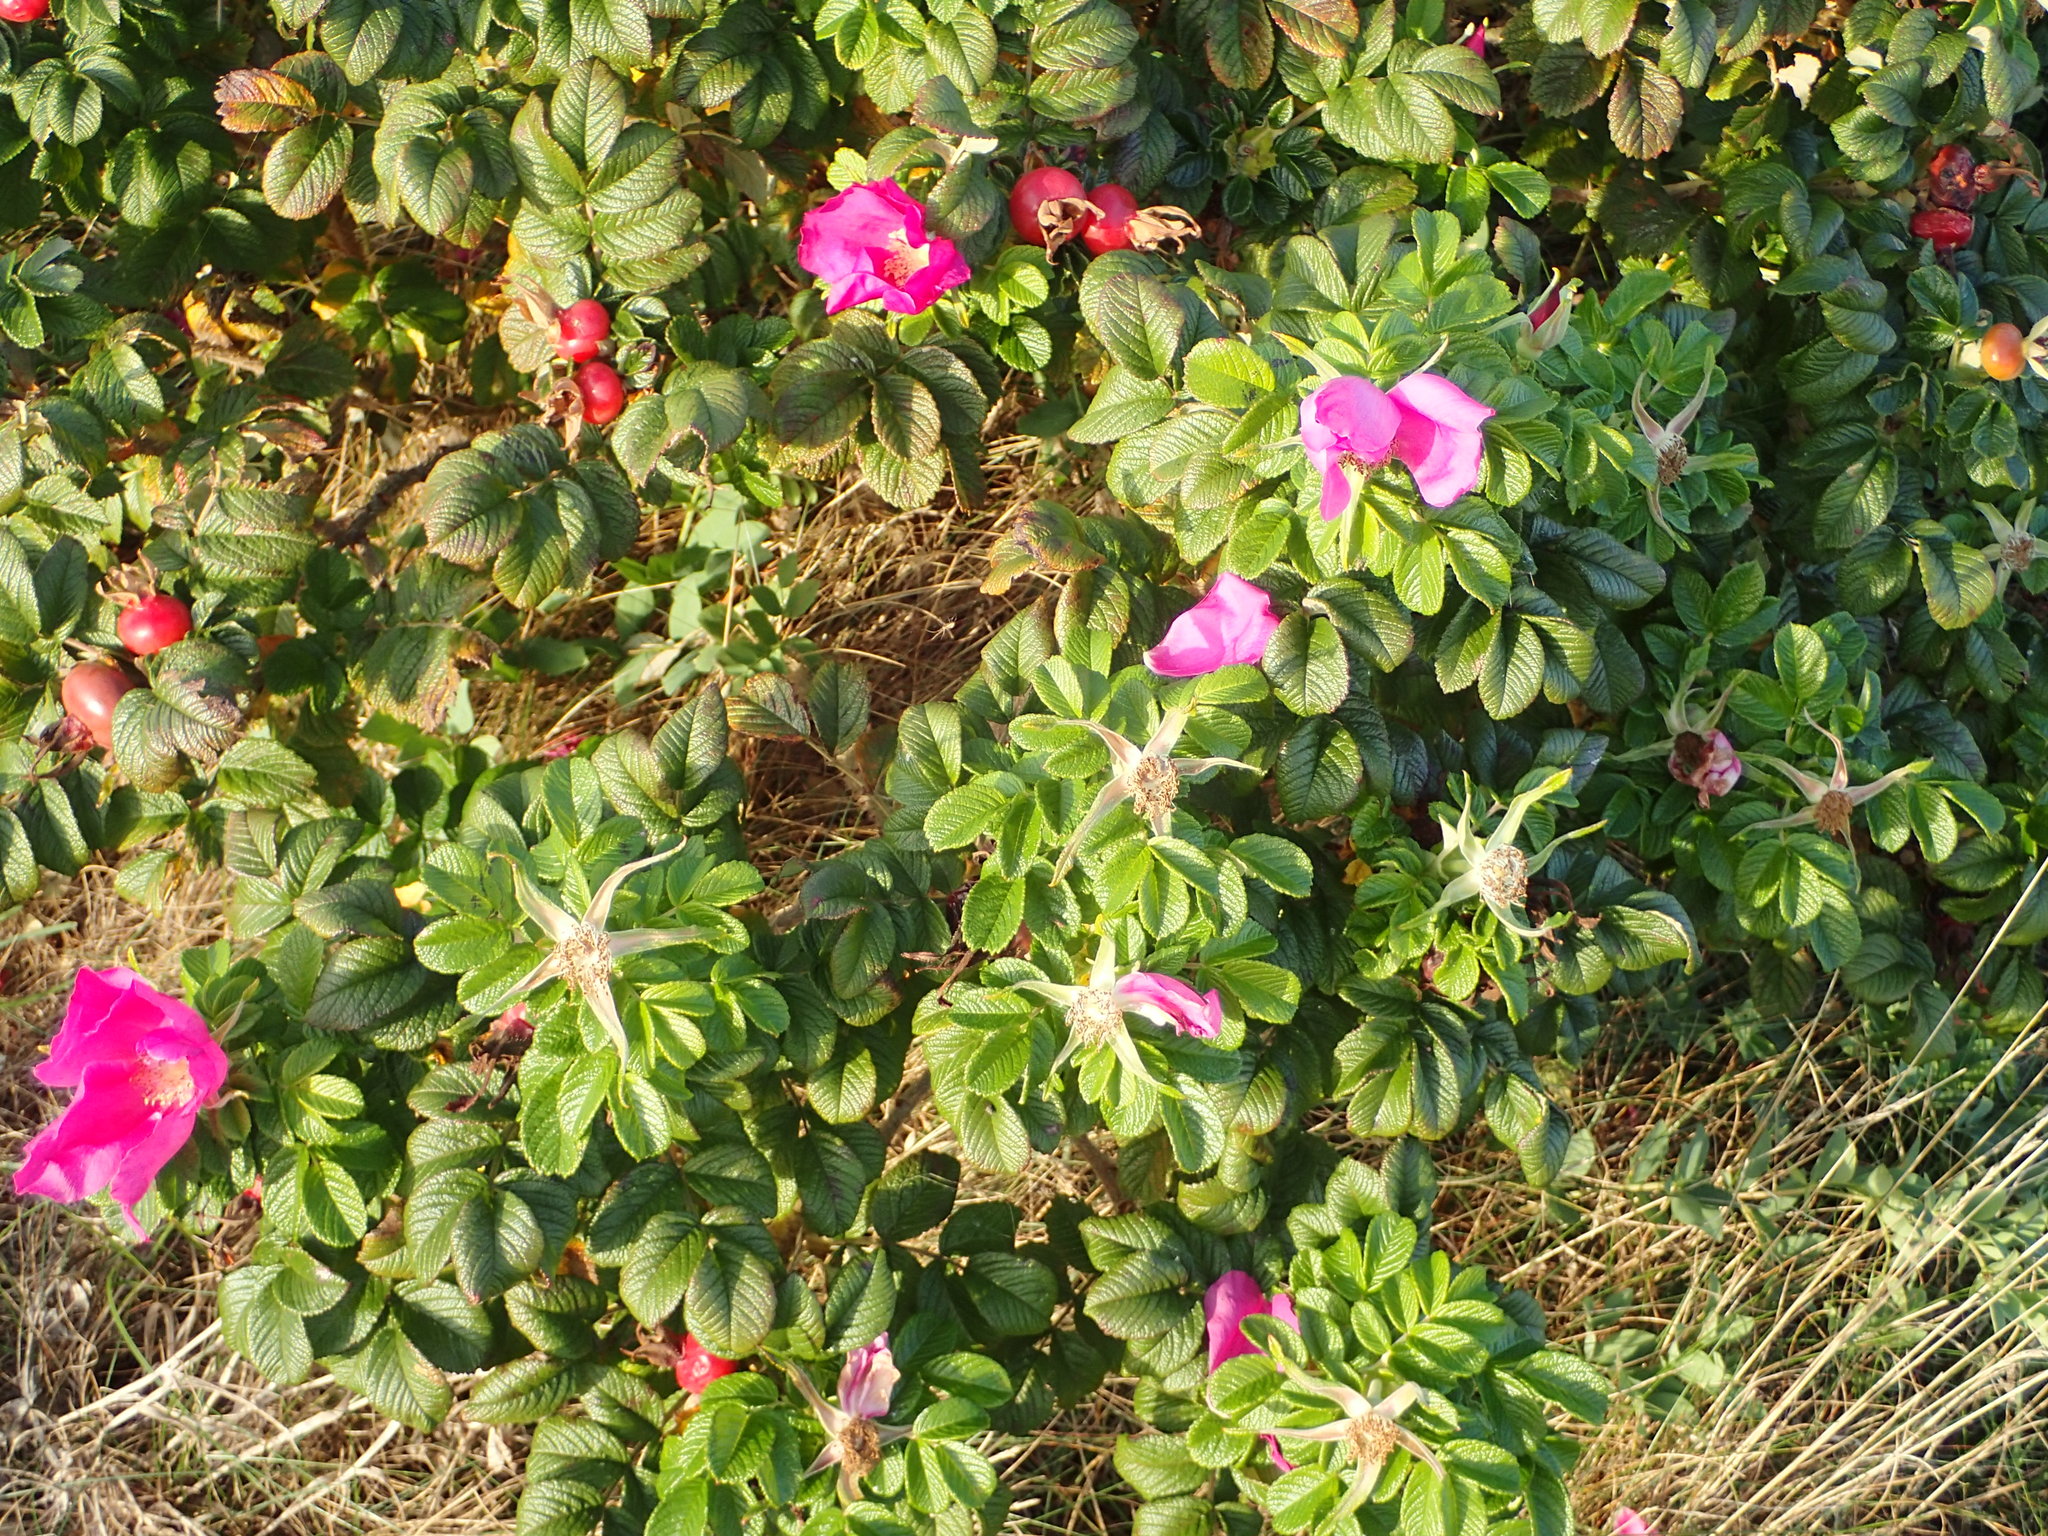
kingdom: Plantae
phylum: Tracheophyta
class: Magnoliopsida
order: Rosales
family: Rosaceae
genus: Rosa
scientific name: Rosa rugosa
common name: Japanese rose
